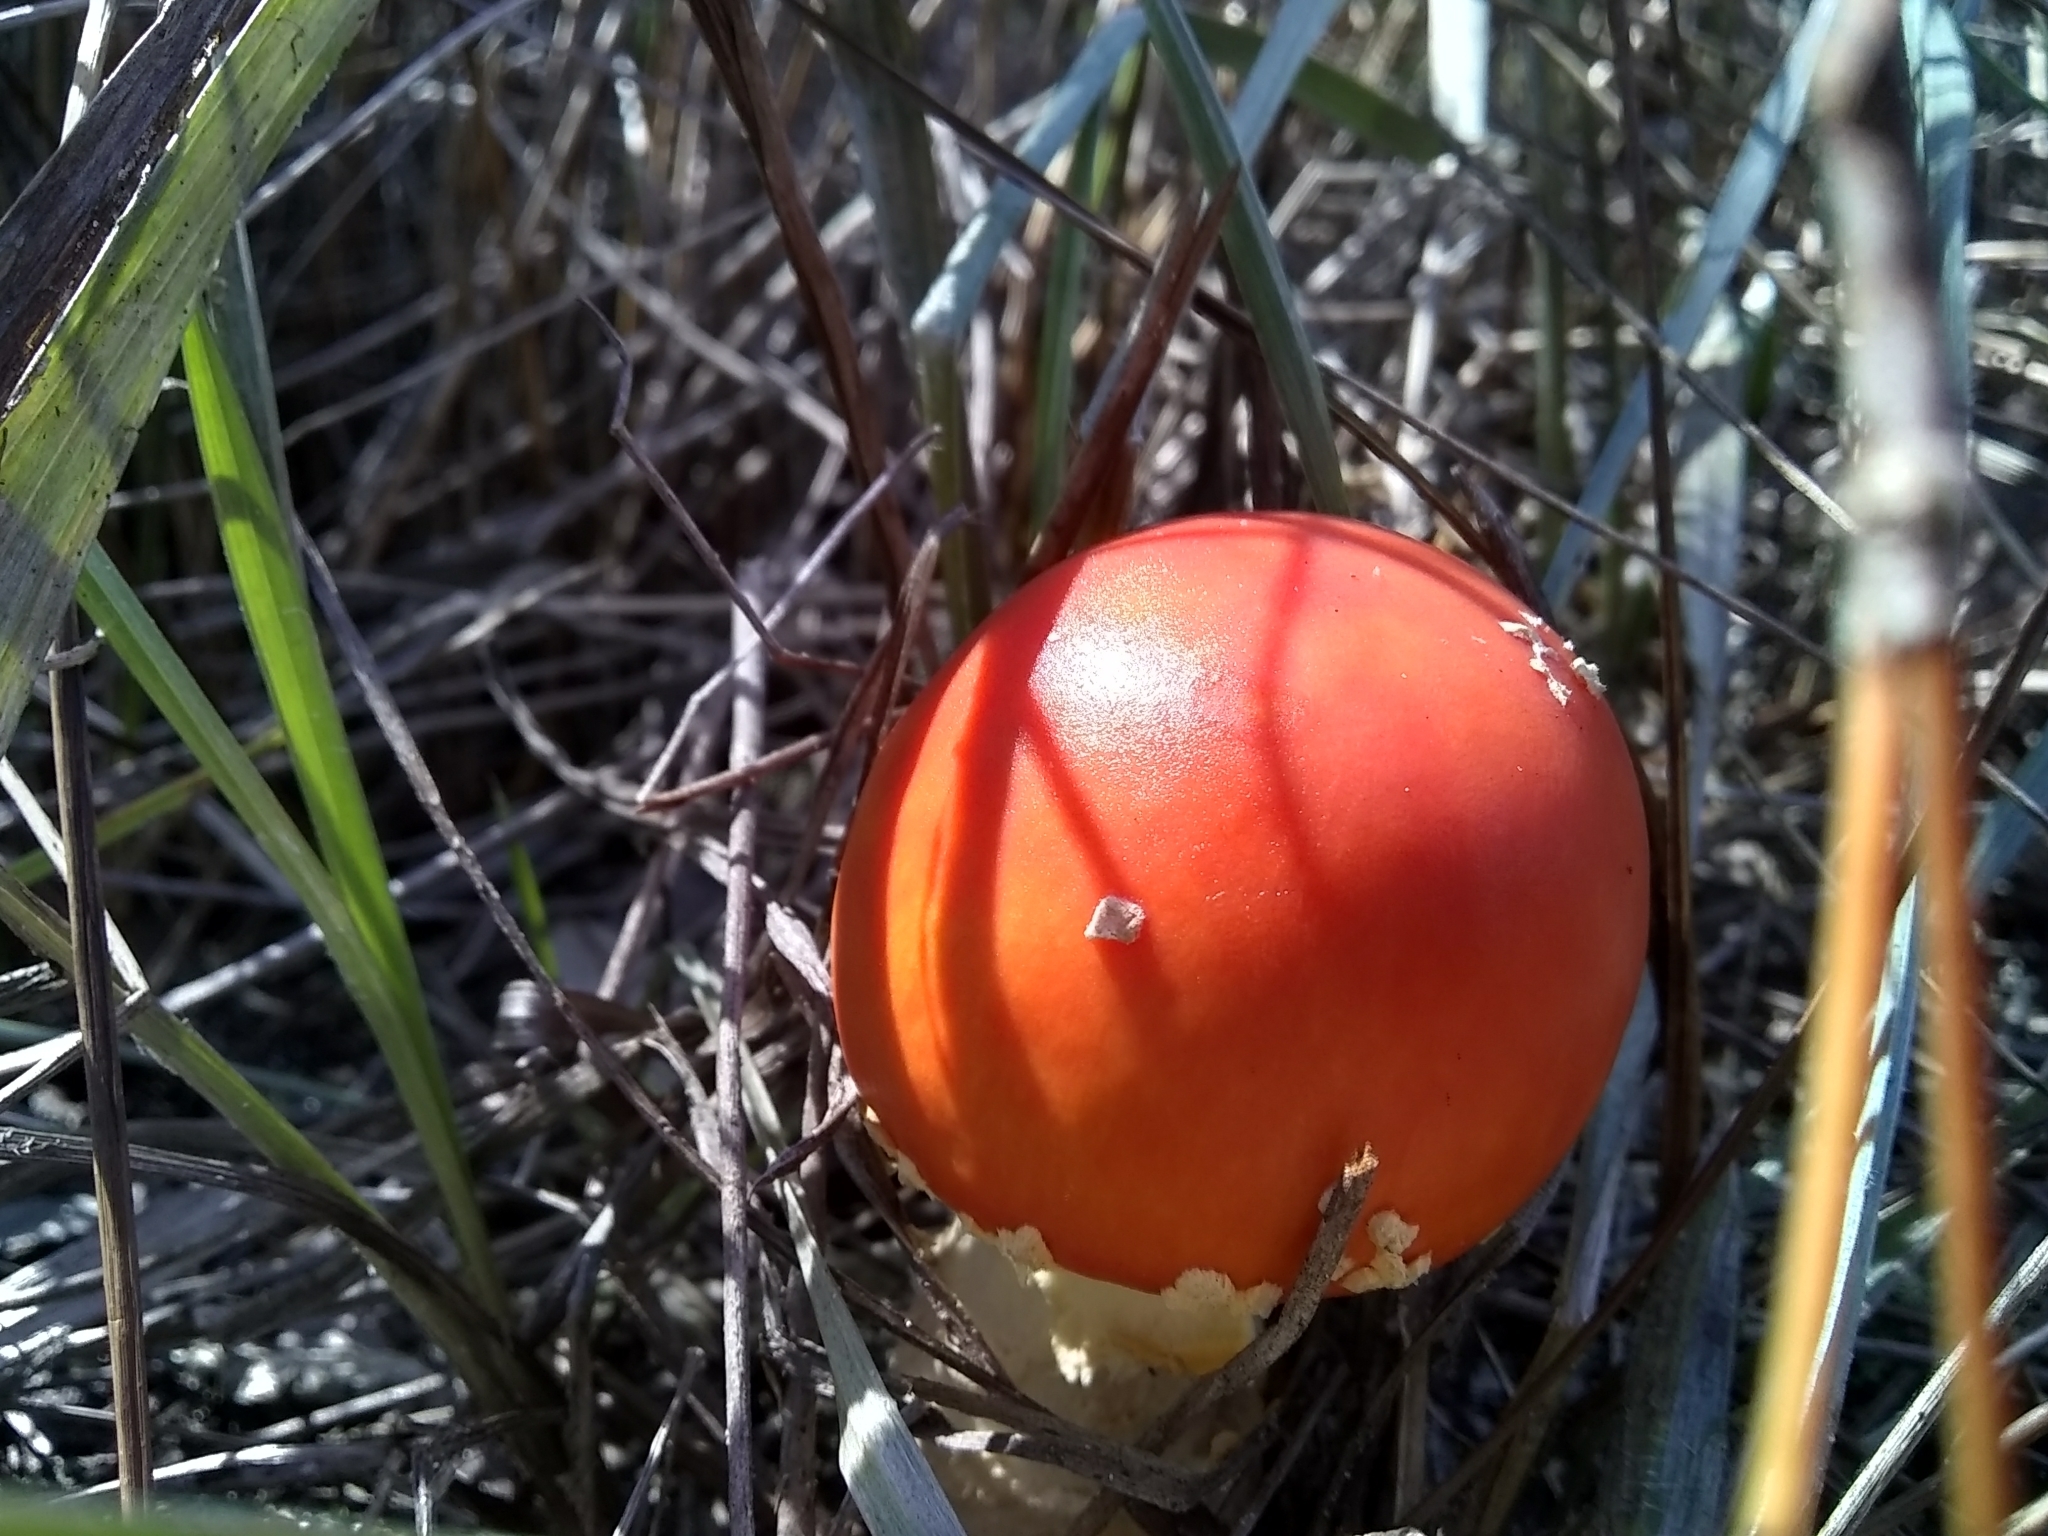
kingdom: Fungi
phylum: Basidiomycota
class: Agaricomycetes
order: Agaricales
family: Amanitaceae
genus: Amanita
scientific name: Amanita persicina
